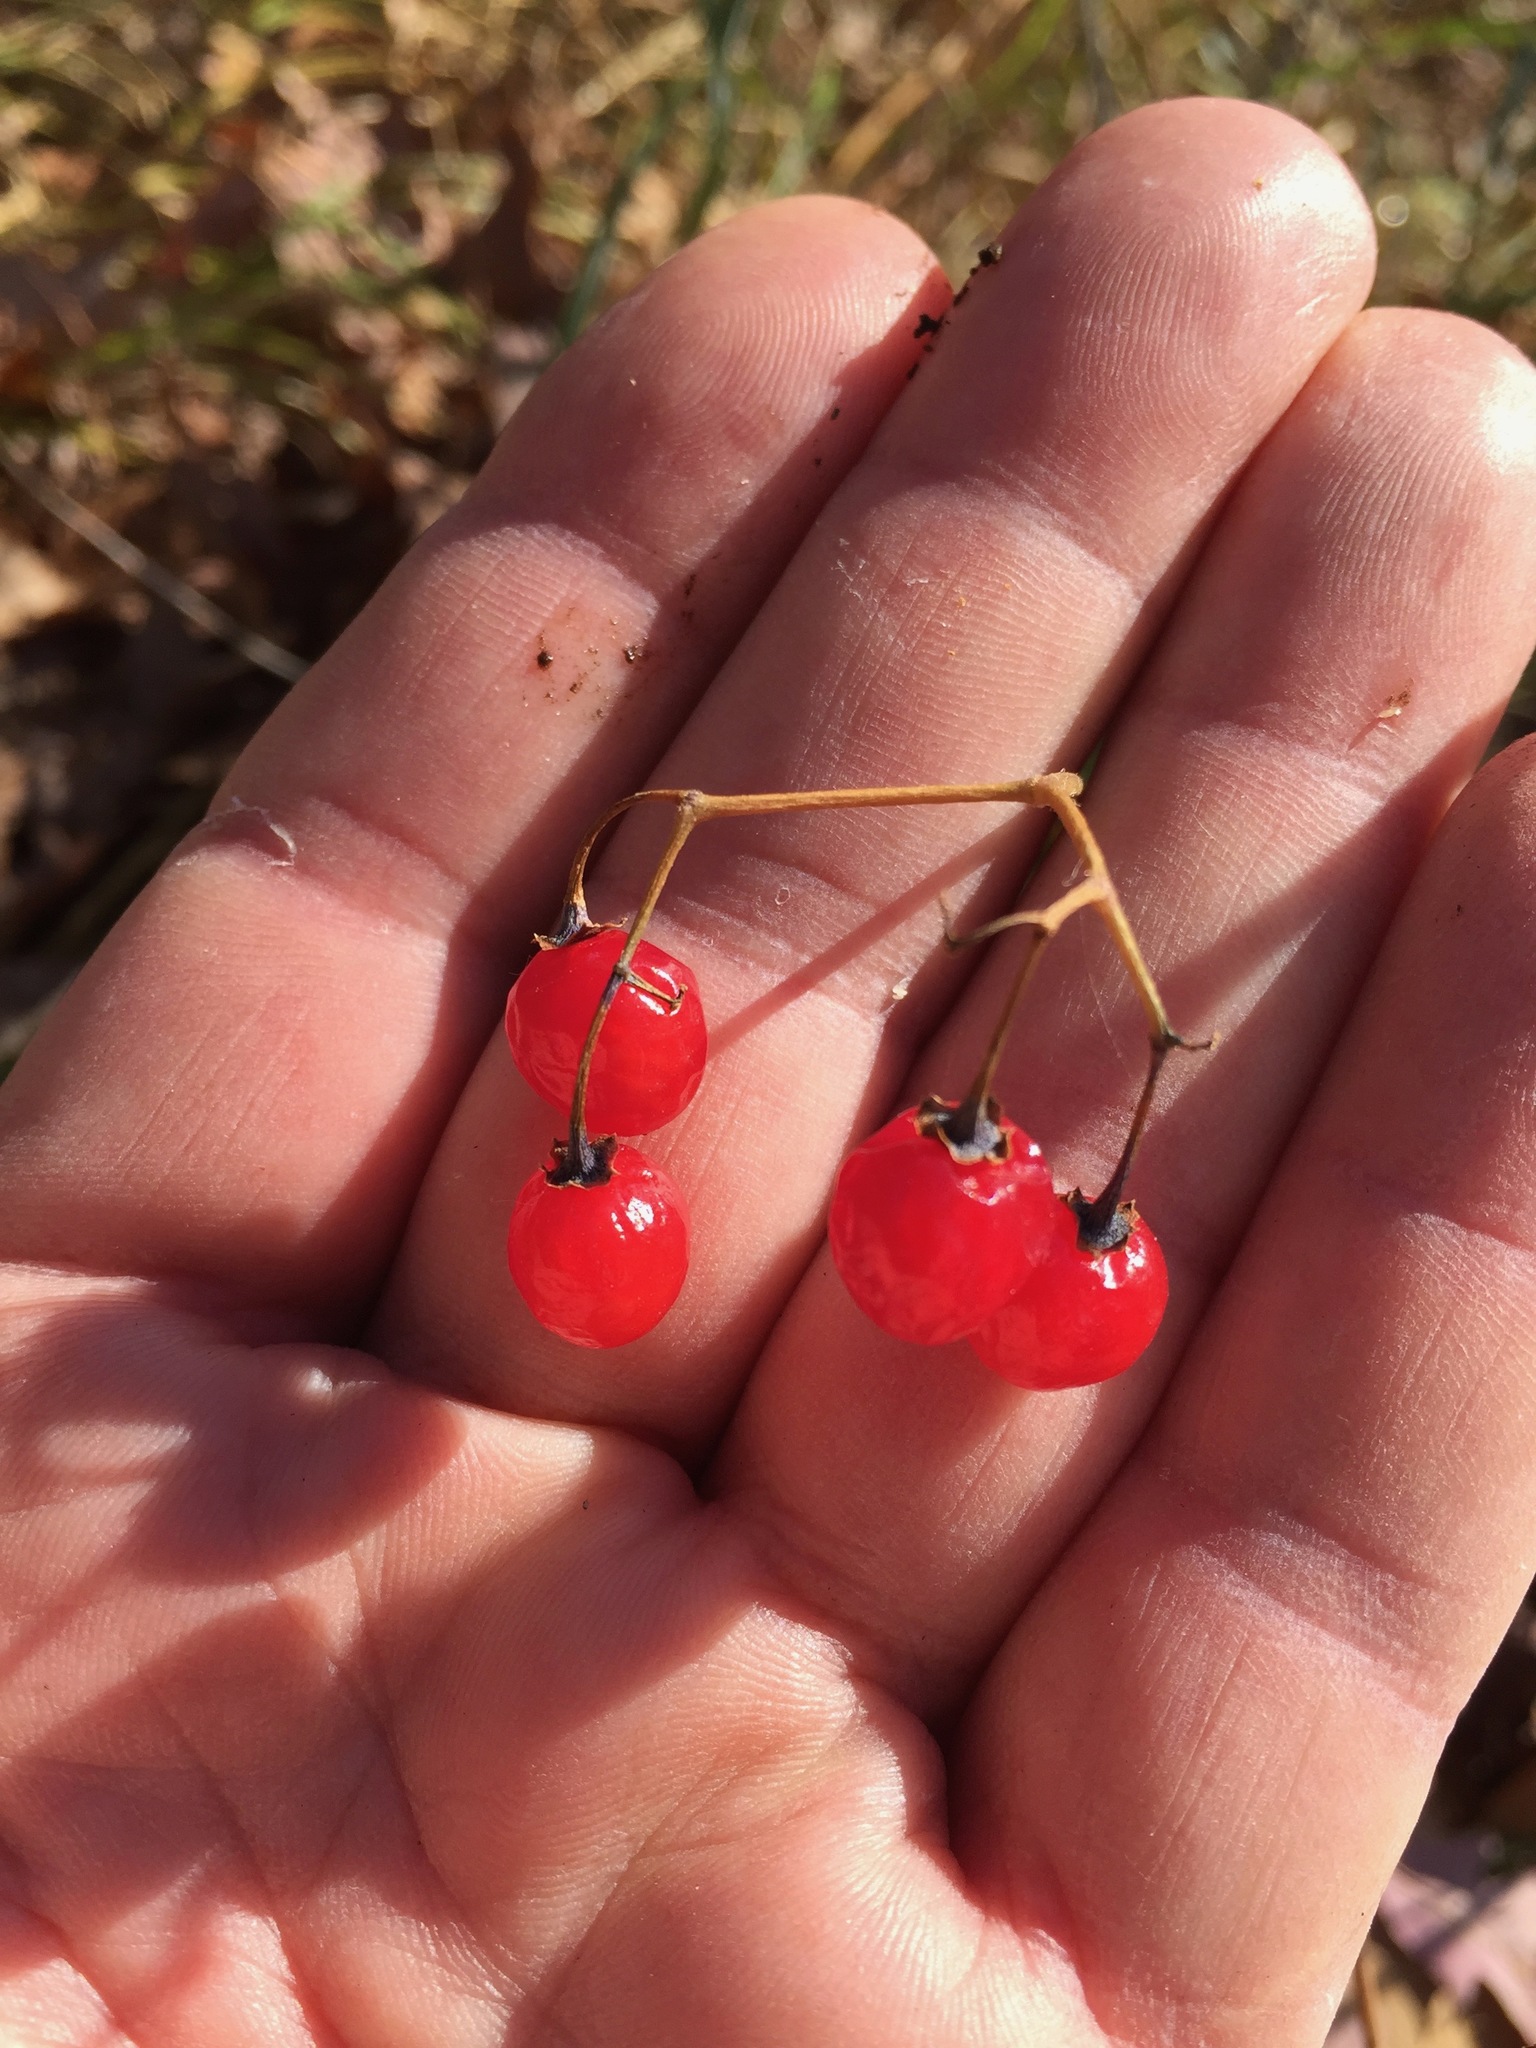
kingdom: Plantae
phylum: Tracheophyta
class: Magnoliopsida
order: Solanales
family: Solanaceae
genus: Solanum
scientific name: Solanum dulcamara
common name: Climbing nightshade
